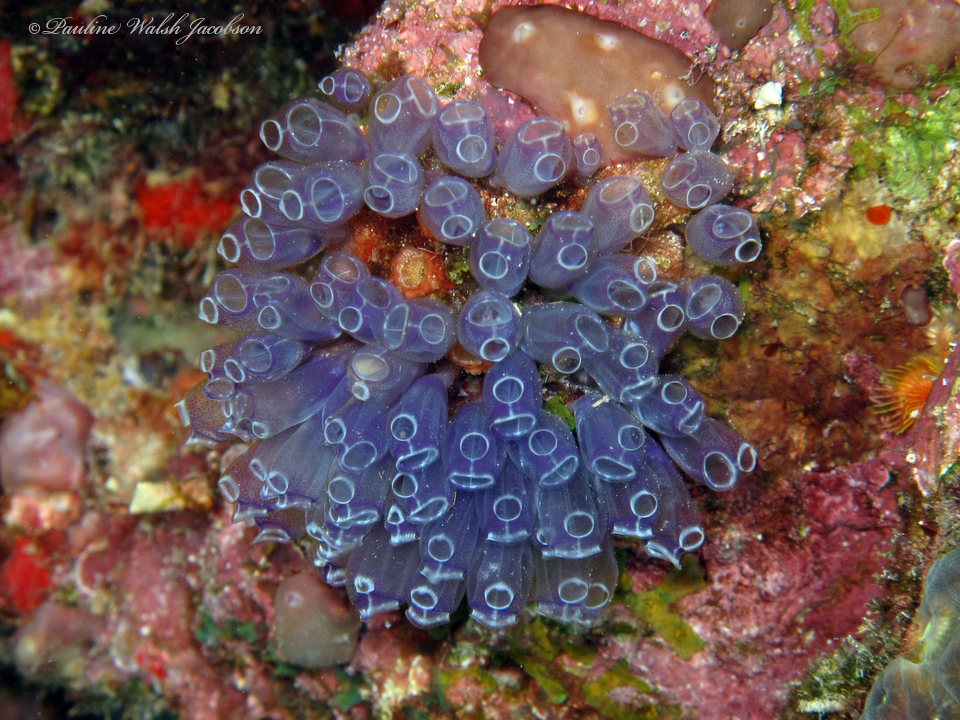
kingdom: Animalia
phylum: Chordata
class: Ascidiacea
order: Aplousobranchia
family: Clavelinidae
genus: Clavelina
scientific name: Clavelina puertosecensis
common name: Blue bell tunicate
